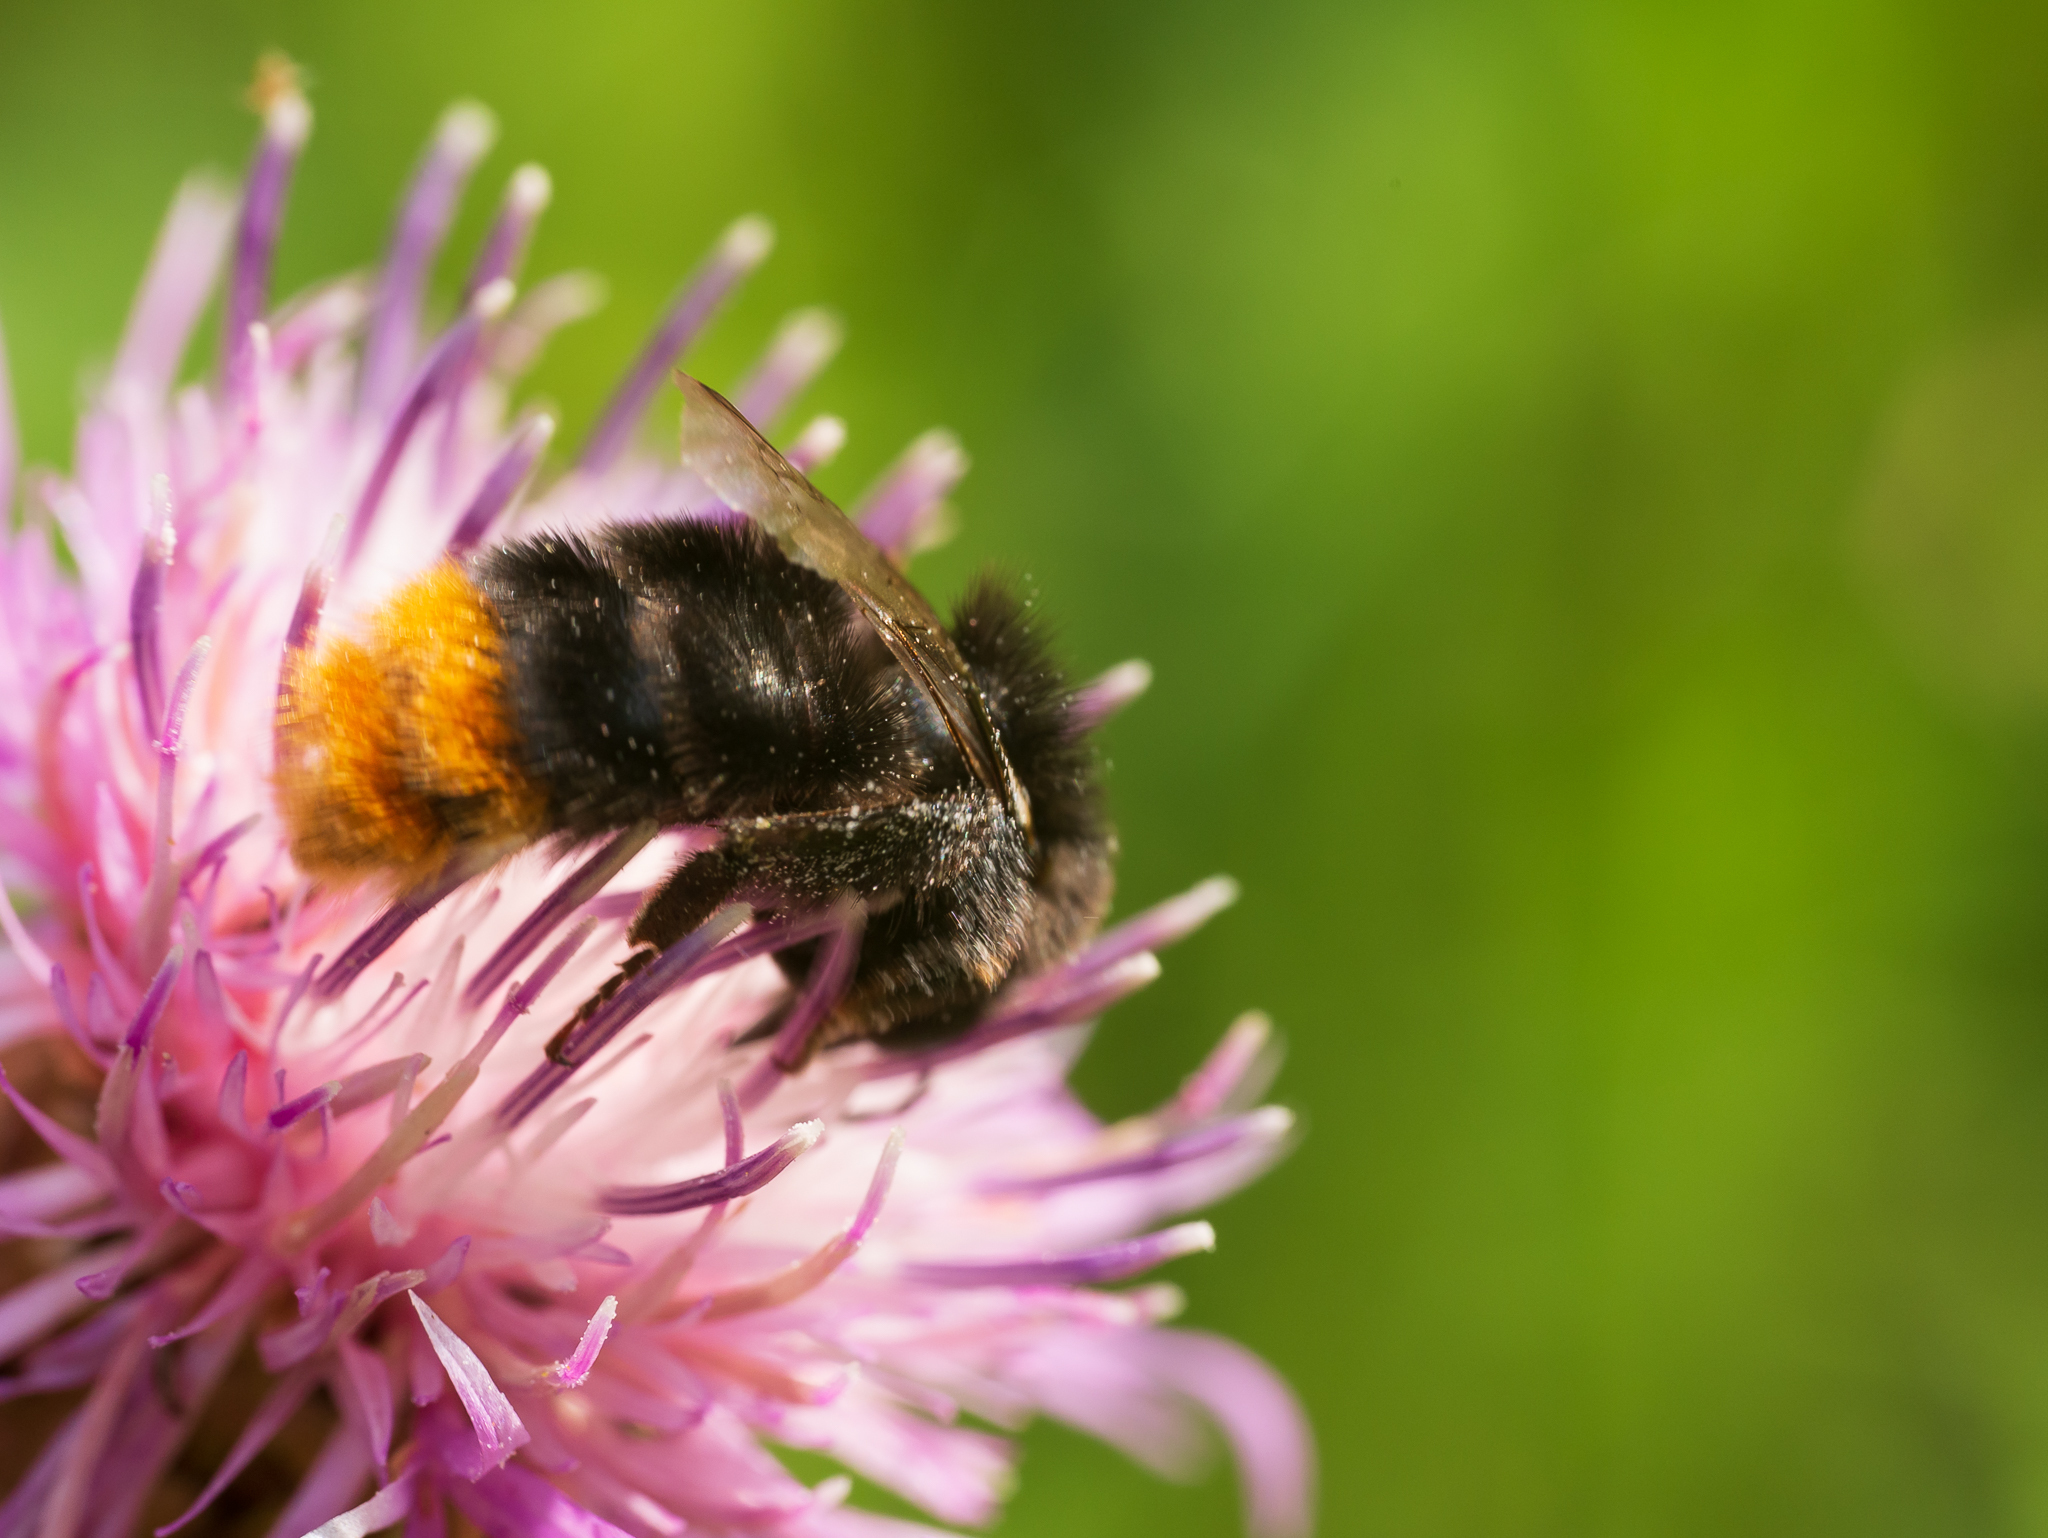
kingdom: Animalia
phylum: Arthropoda
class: Insecta
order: Hymenoptera
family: Apidae
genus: Bombus
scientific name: Bombus lapidarius
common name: Large red-tailed humble-bee
